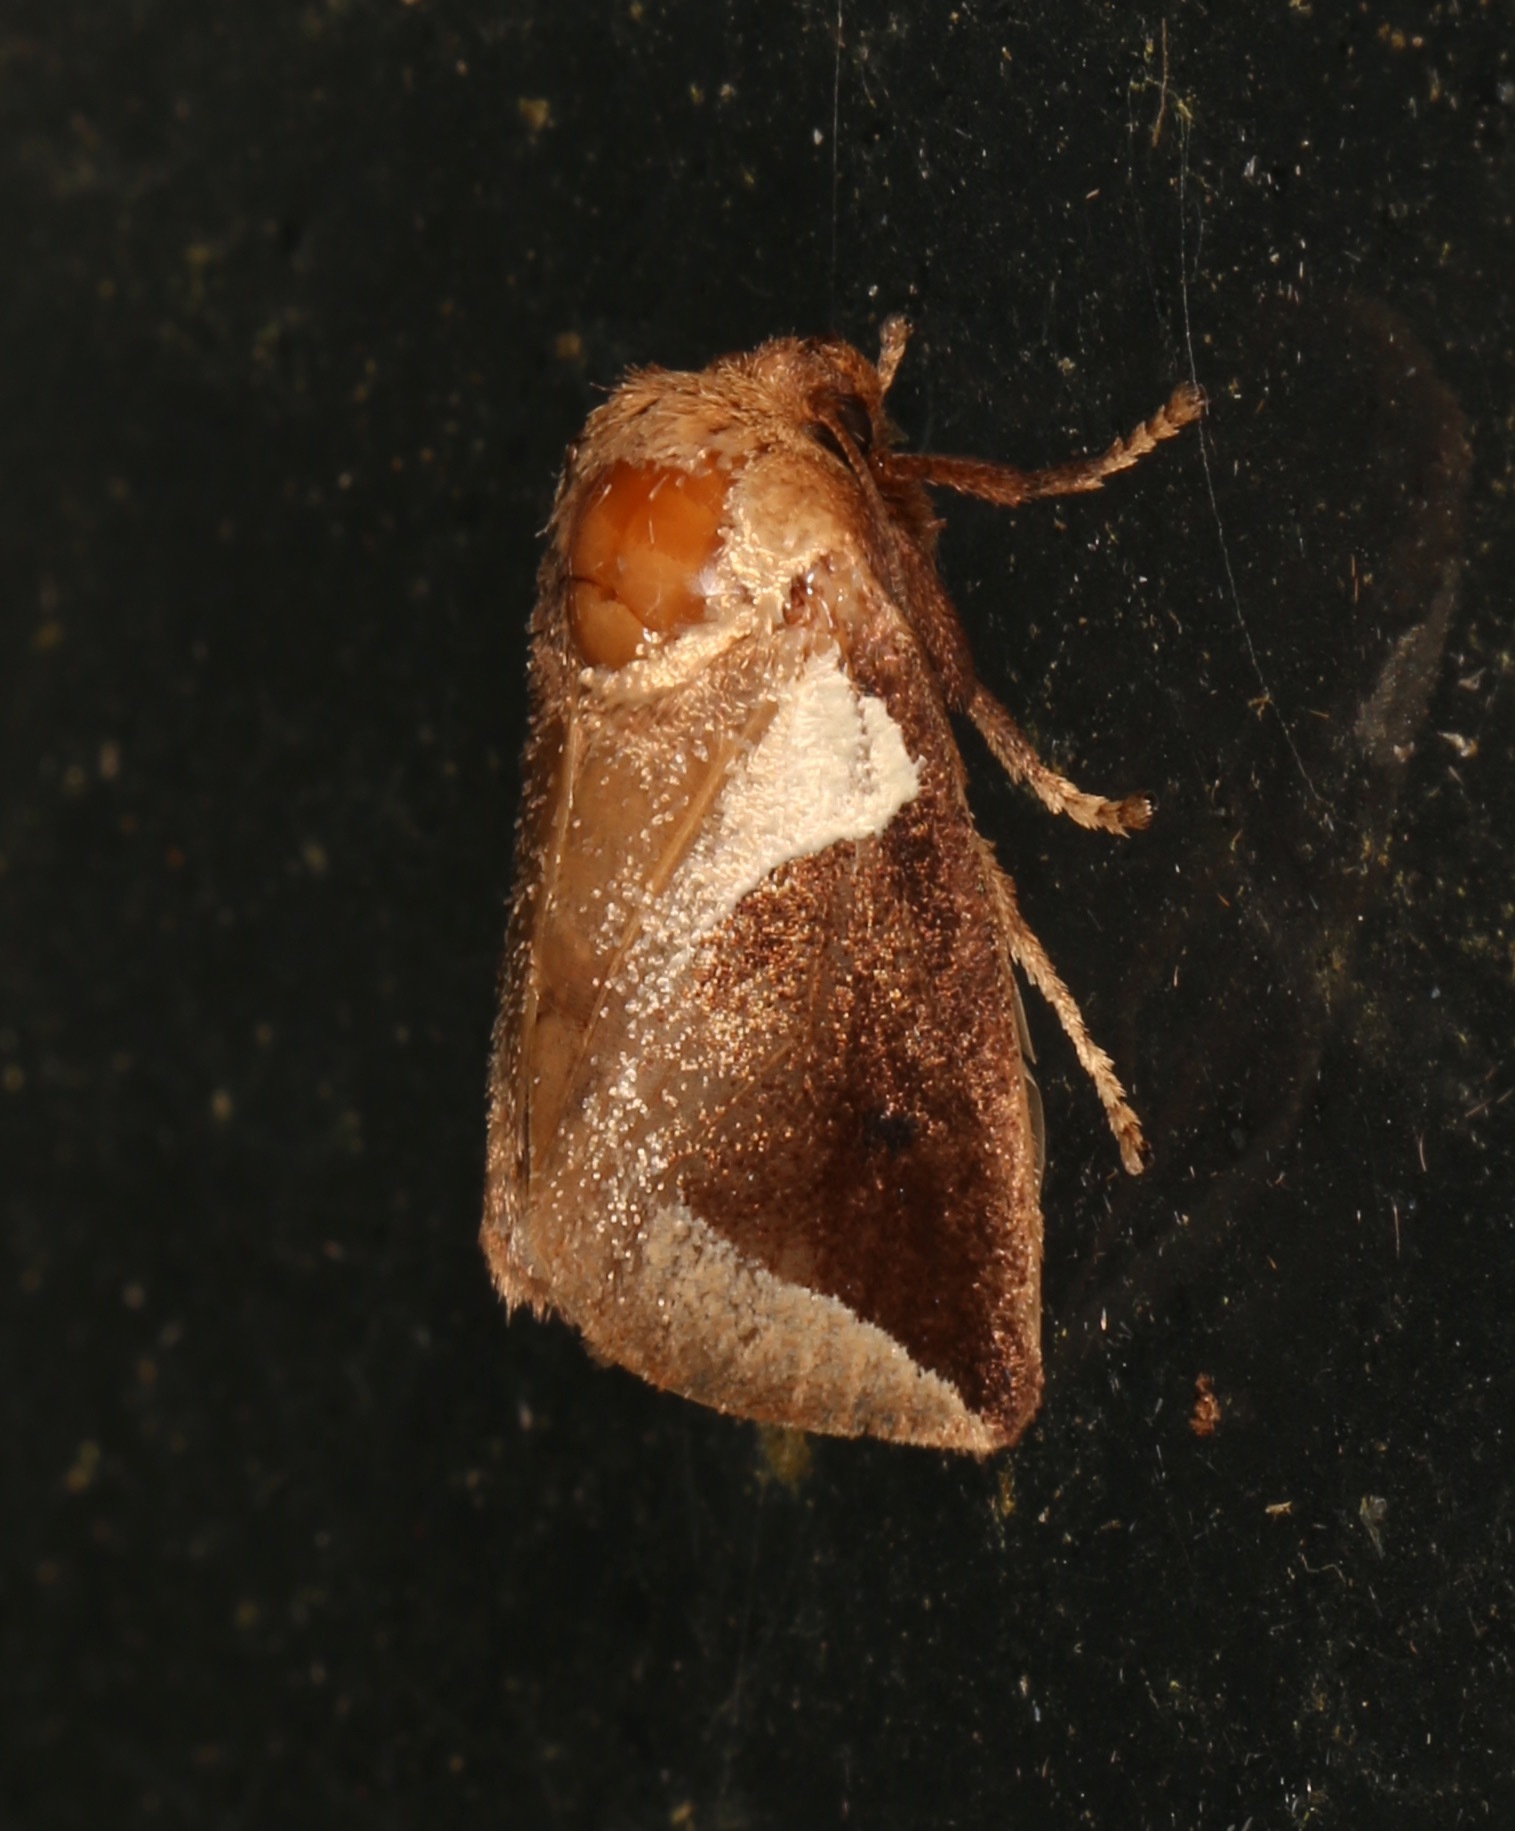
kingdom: Animalia
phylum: Arthropoda
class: Insecta
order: Lepidoptera
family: Limacodidae
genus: Prolimacodes
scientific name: Prolimacodes badia
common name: Skiff moth
